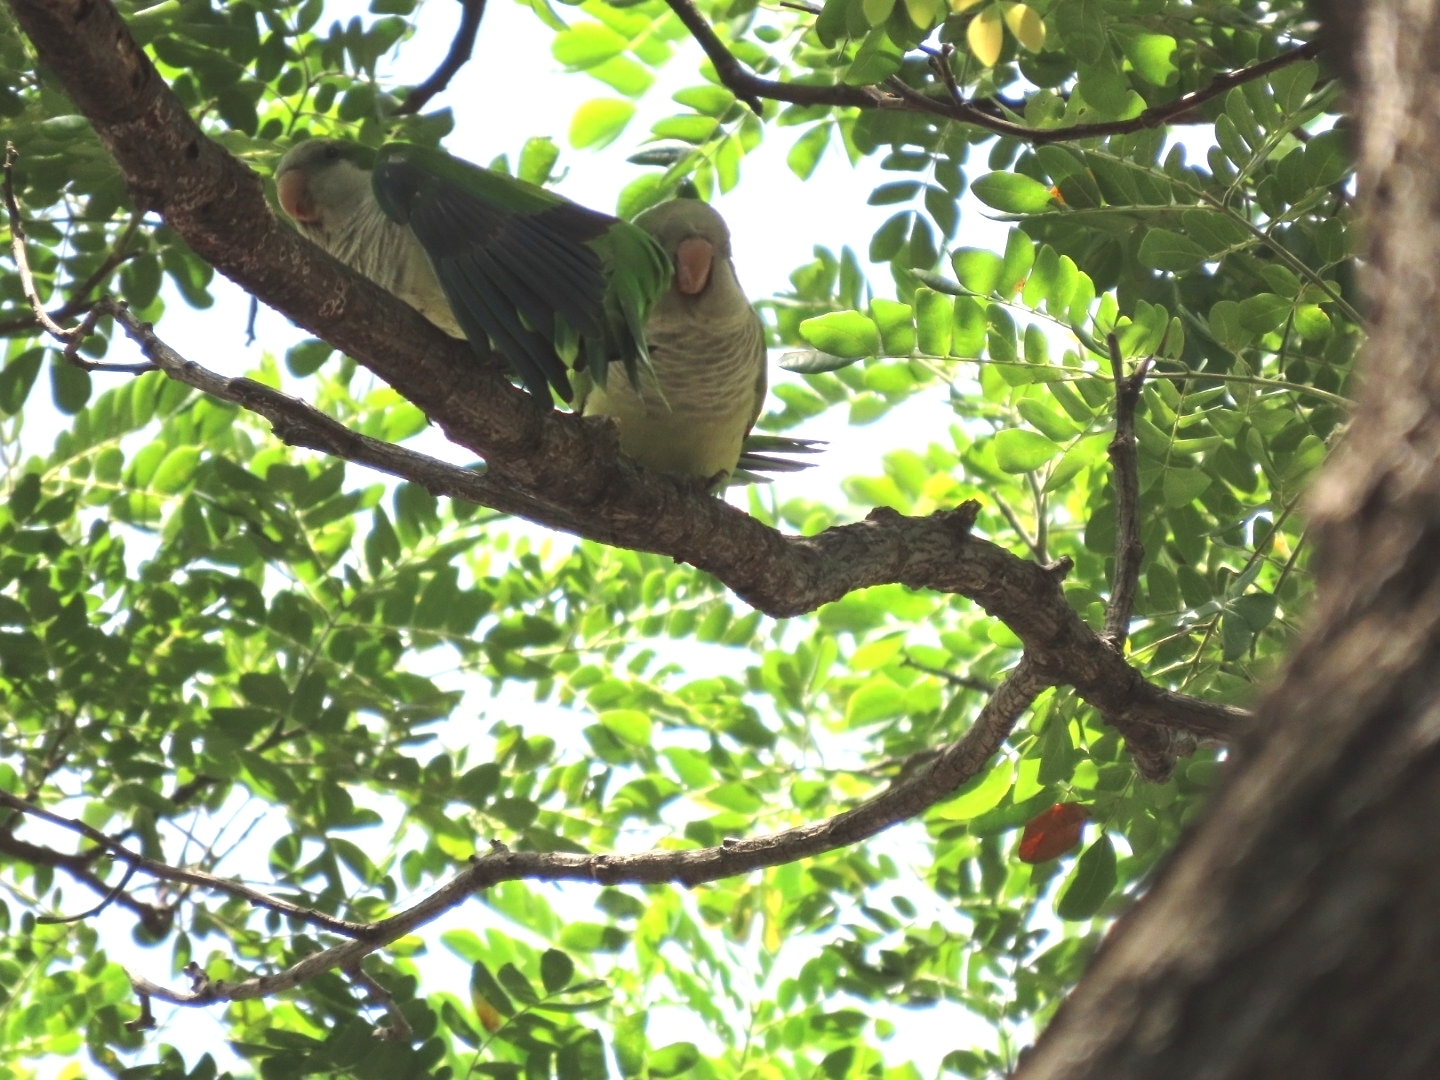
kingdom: Animalia
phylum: Chordata
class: Aves
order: Psittaciformes
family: Psittacidae
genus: Myiopsitta
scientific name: Myiopsitta monachus
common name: Monk parakeet
